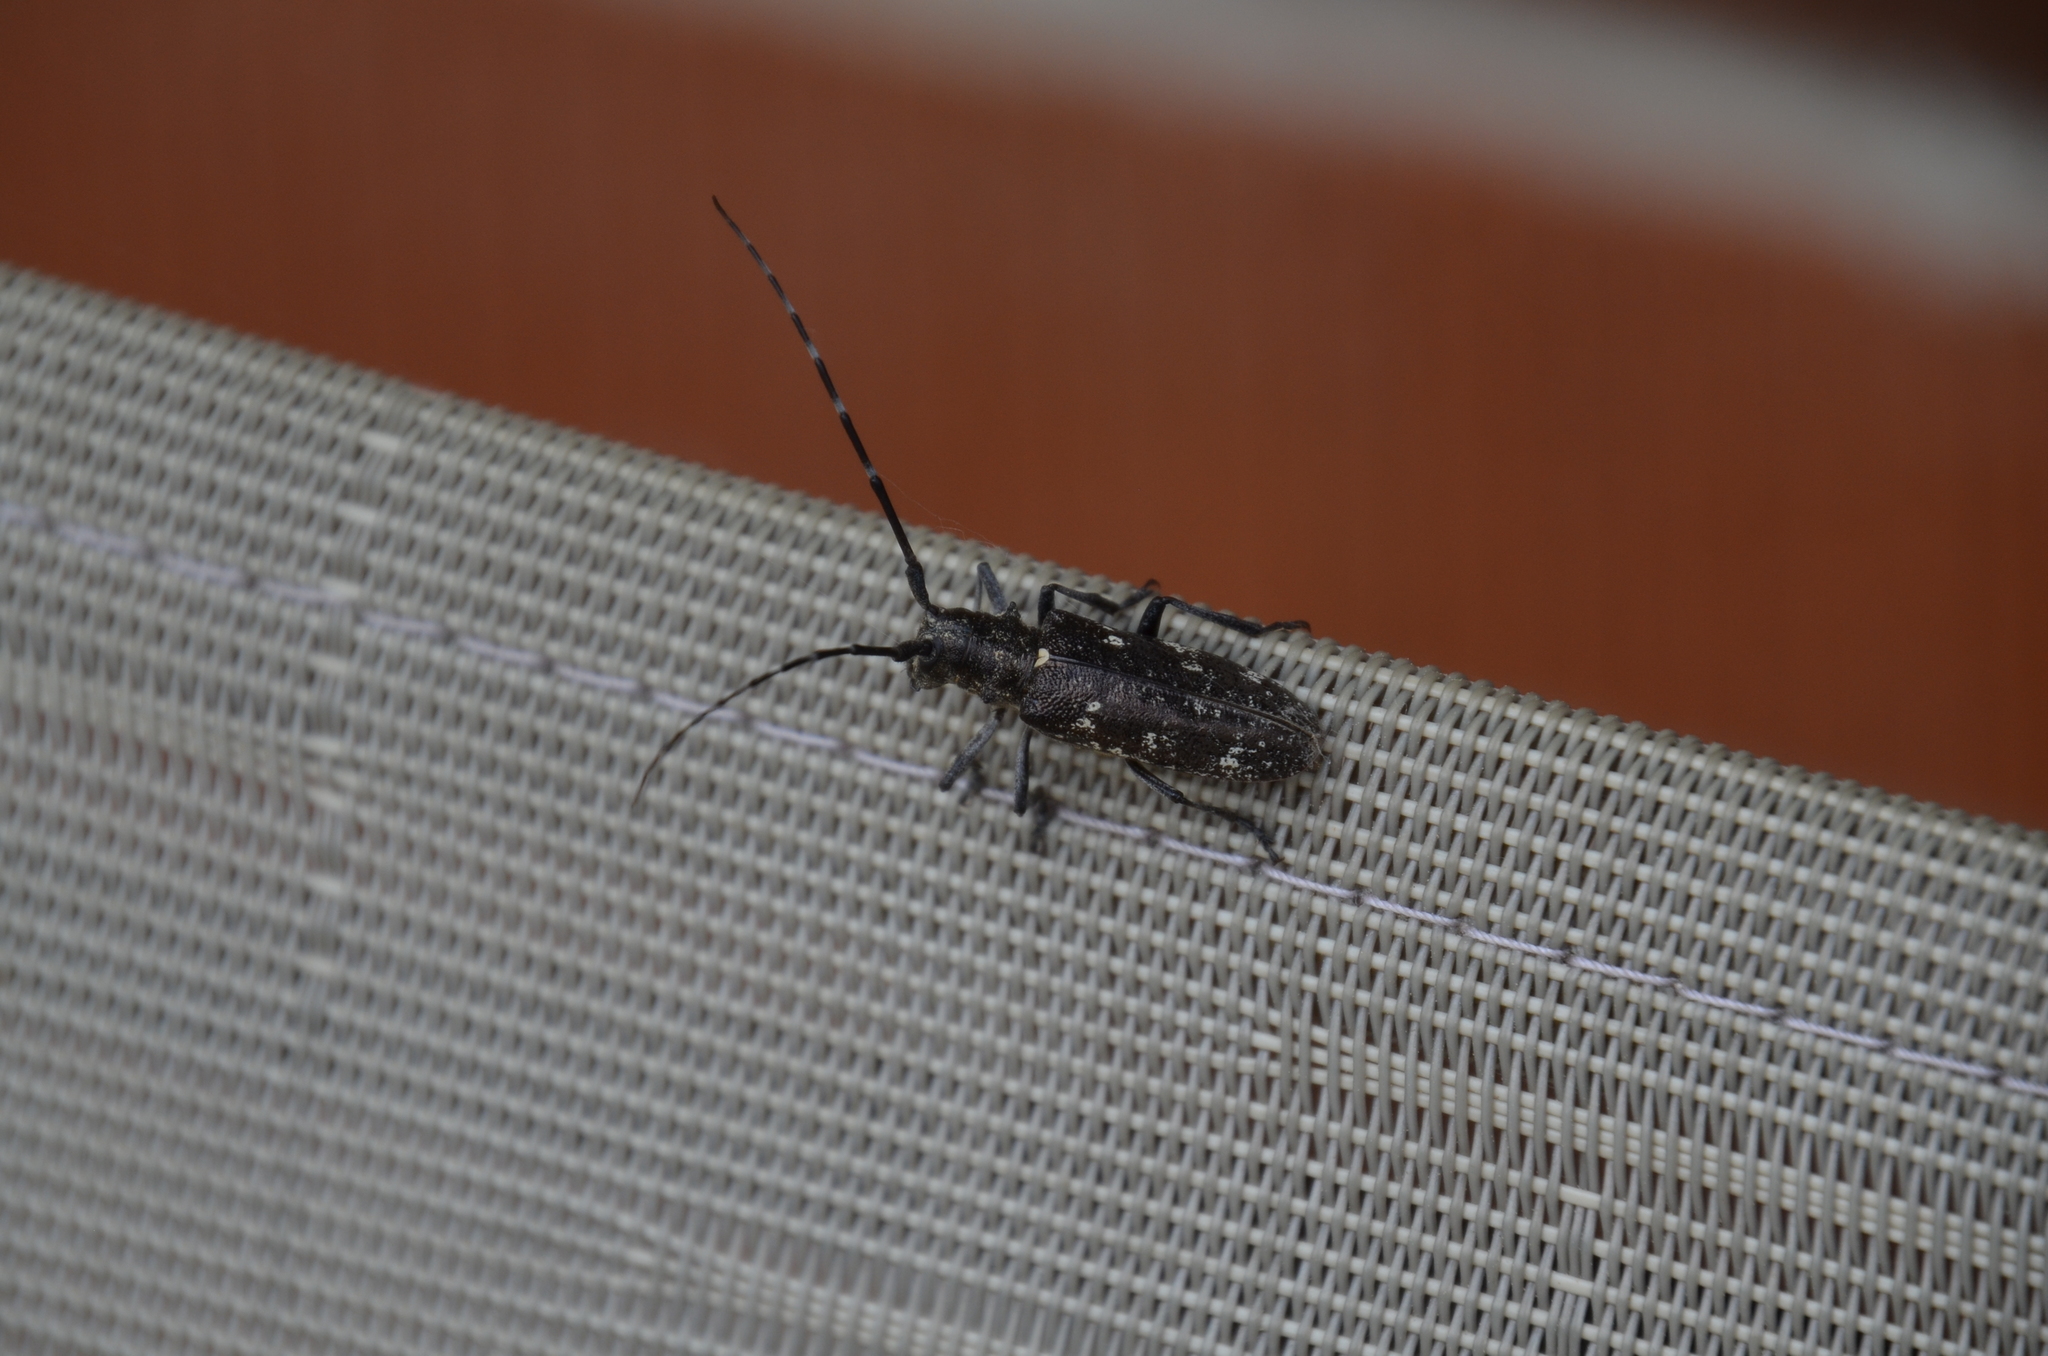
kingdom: Animalia
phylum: Arthropoda
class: Insecta
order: Coleoptera
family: Cerambycidae
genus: Monochamus
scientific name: Monochamus scutellatus
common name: White-spotted sawyer beetle
